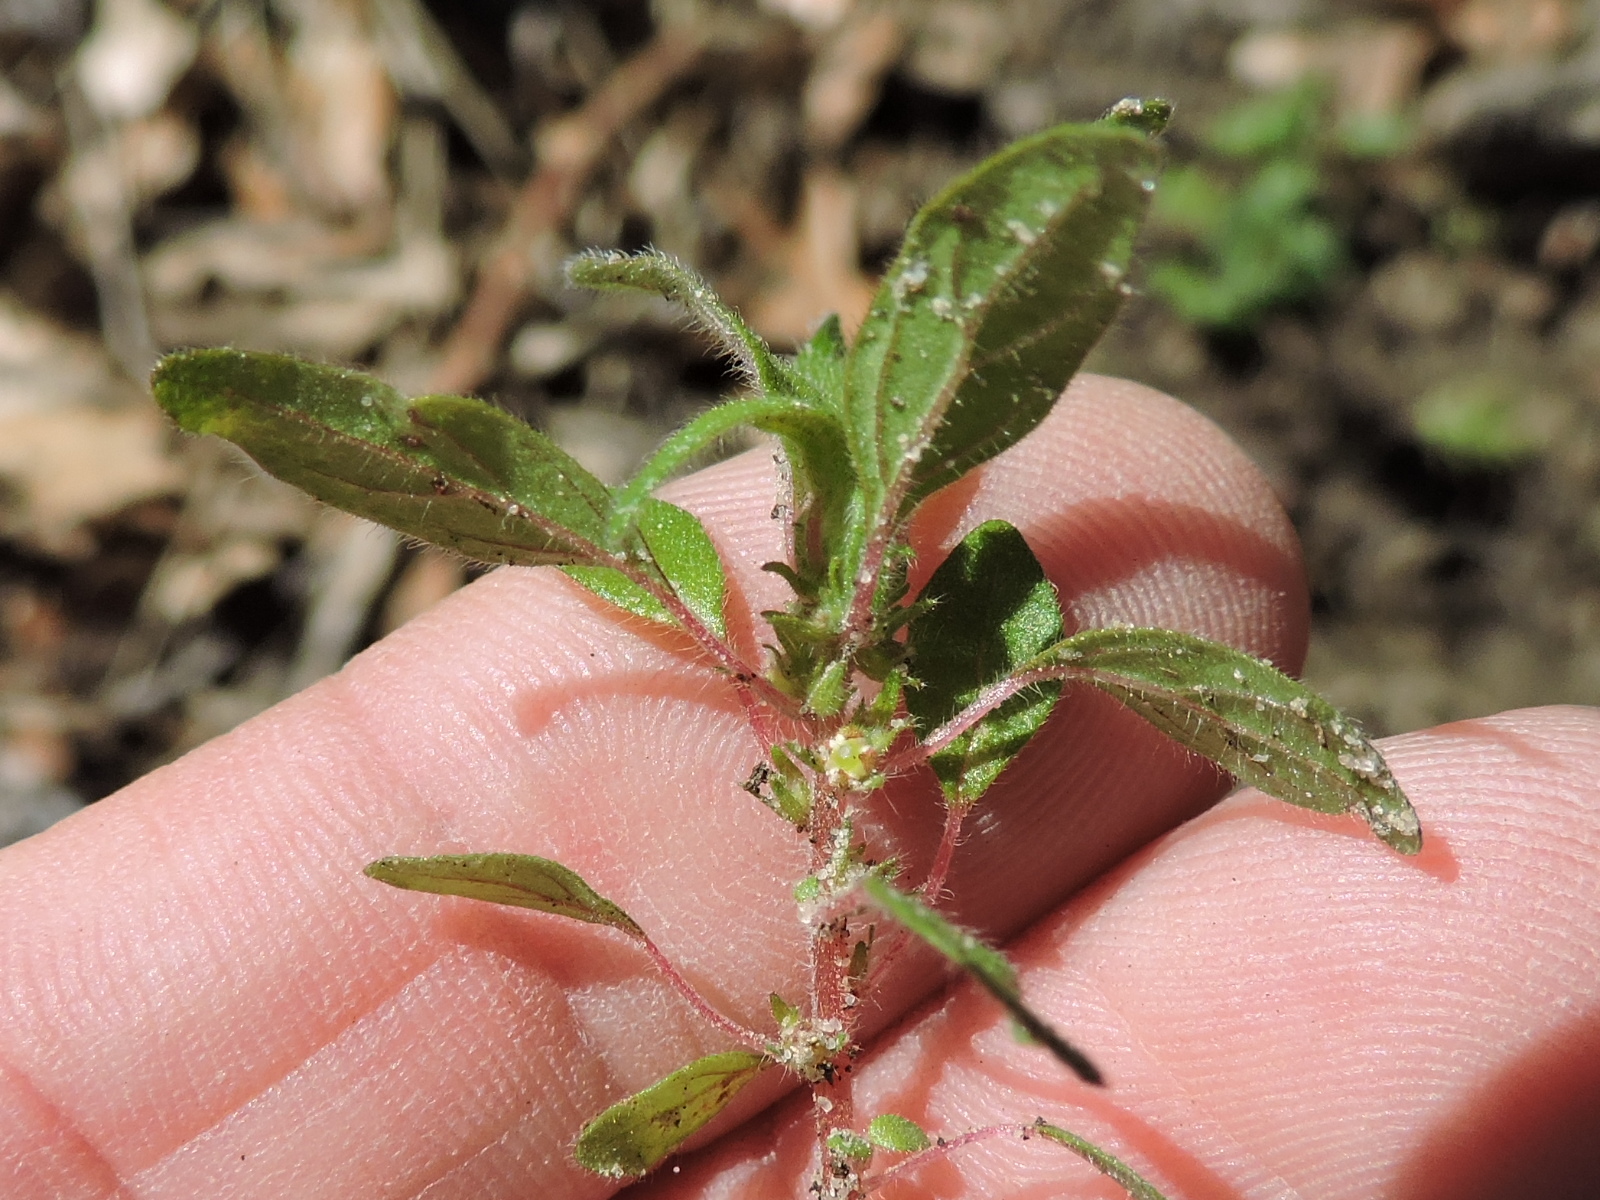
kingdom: Plantae
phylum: Tracheophyta
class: Magnoliopsida
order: Rosales
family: Urticaceae
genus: Parietaria
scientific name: Parietaria pensylvanica
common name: Pennsylvania pellitory
